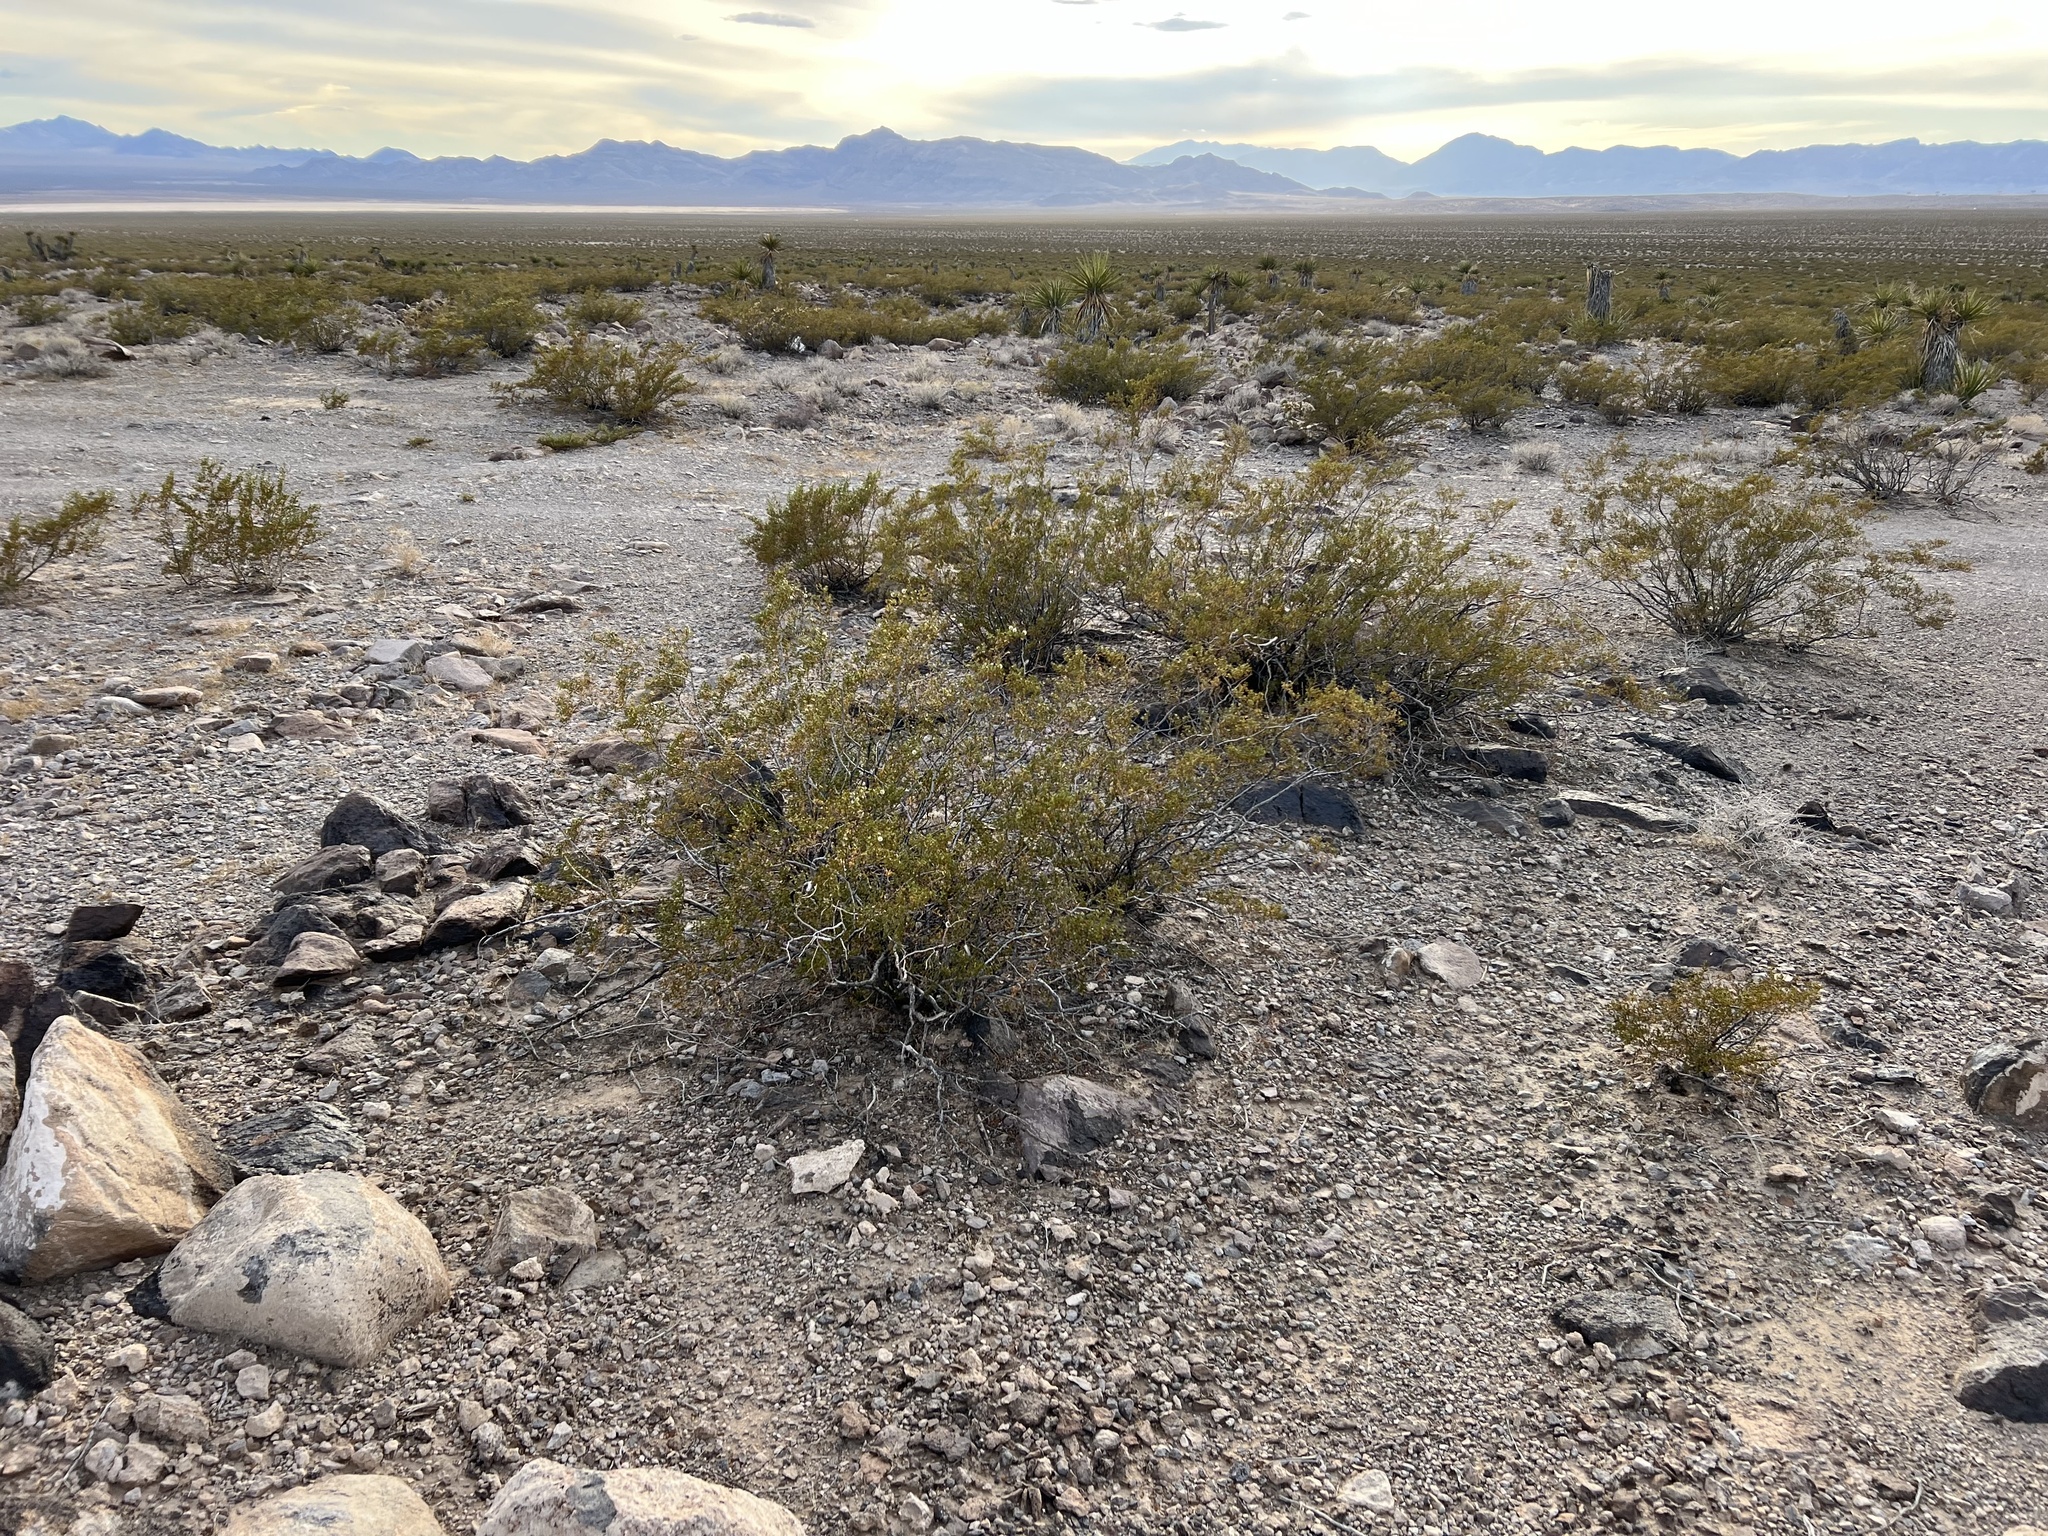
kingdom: Plantae
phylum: Tracheophyta
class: Magnoliopsida
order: Zygophyllales
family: Zygophyllaceae
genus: Larrea
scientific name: Larrea tridentata
